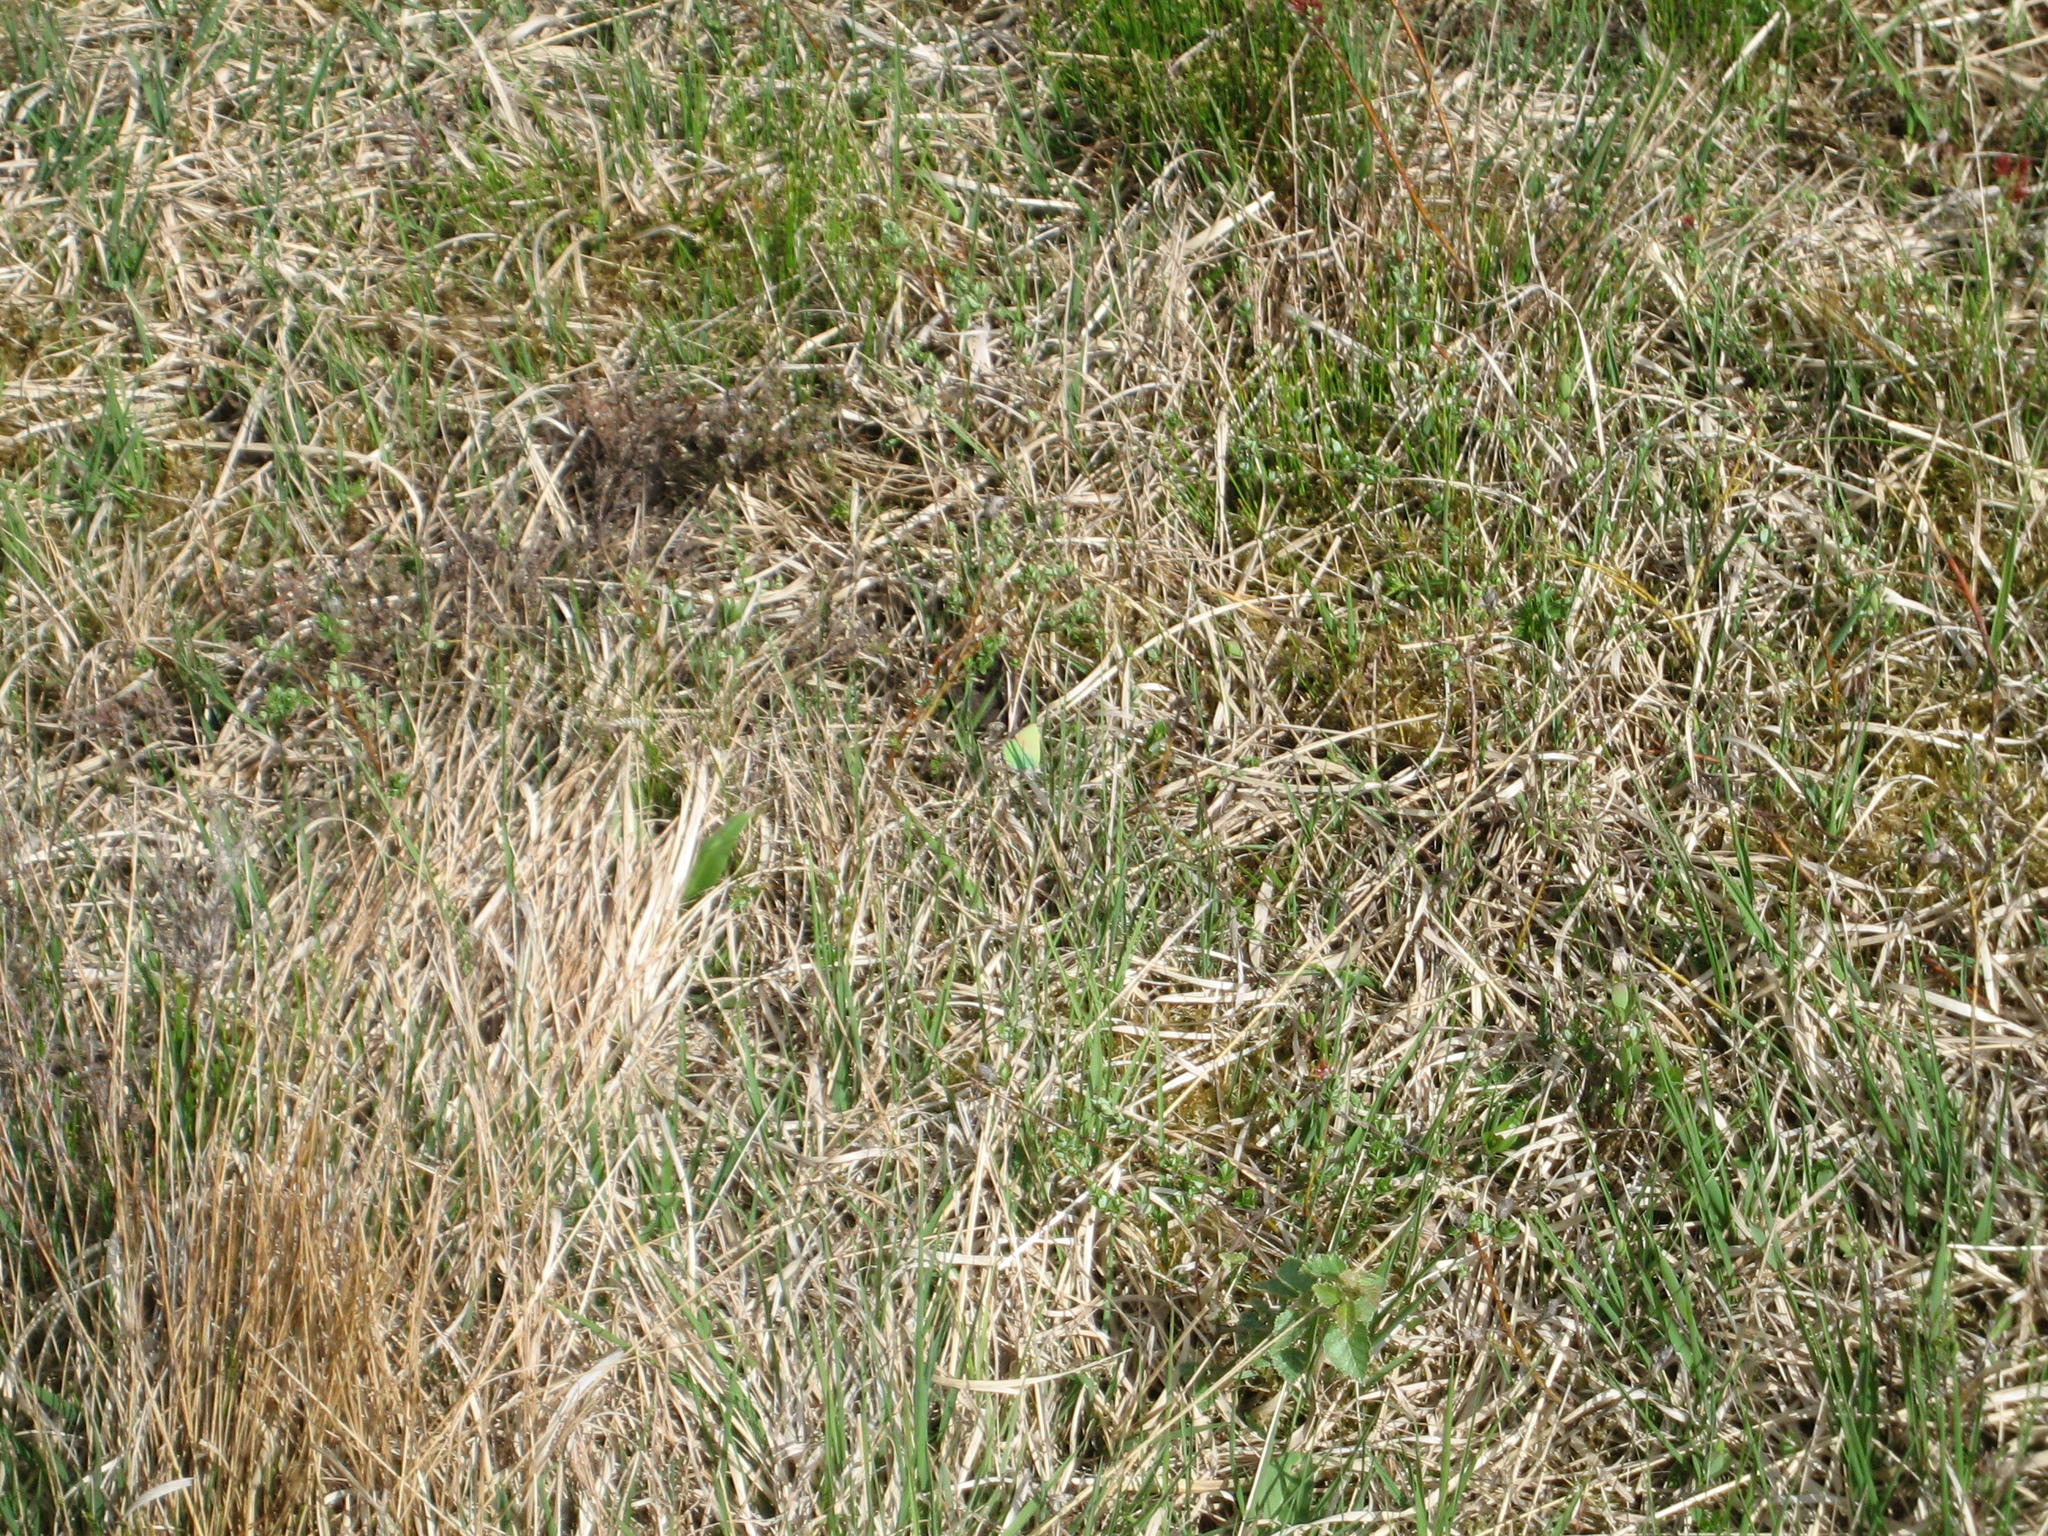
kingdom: Animalia
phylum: Arthropoda
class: Insecta
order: Lepidoptera
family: Lycaenidae
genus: Callophrys
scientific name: Callophrys rubi
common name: Green hairstreak
